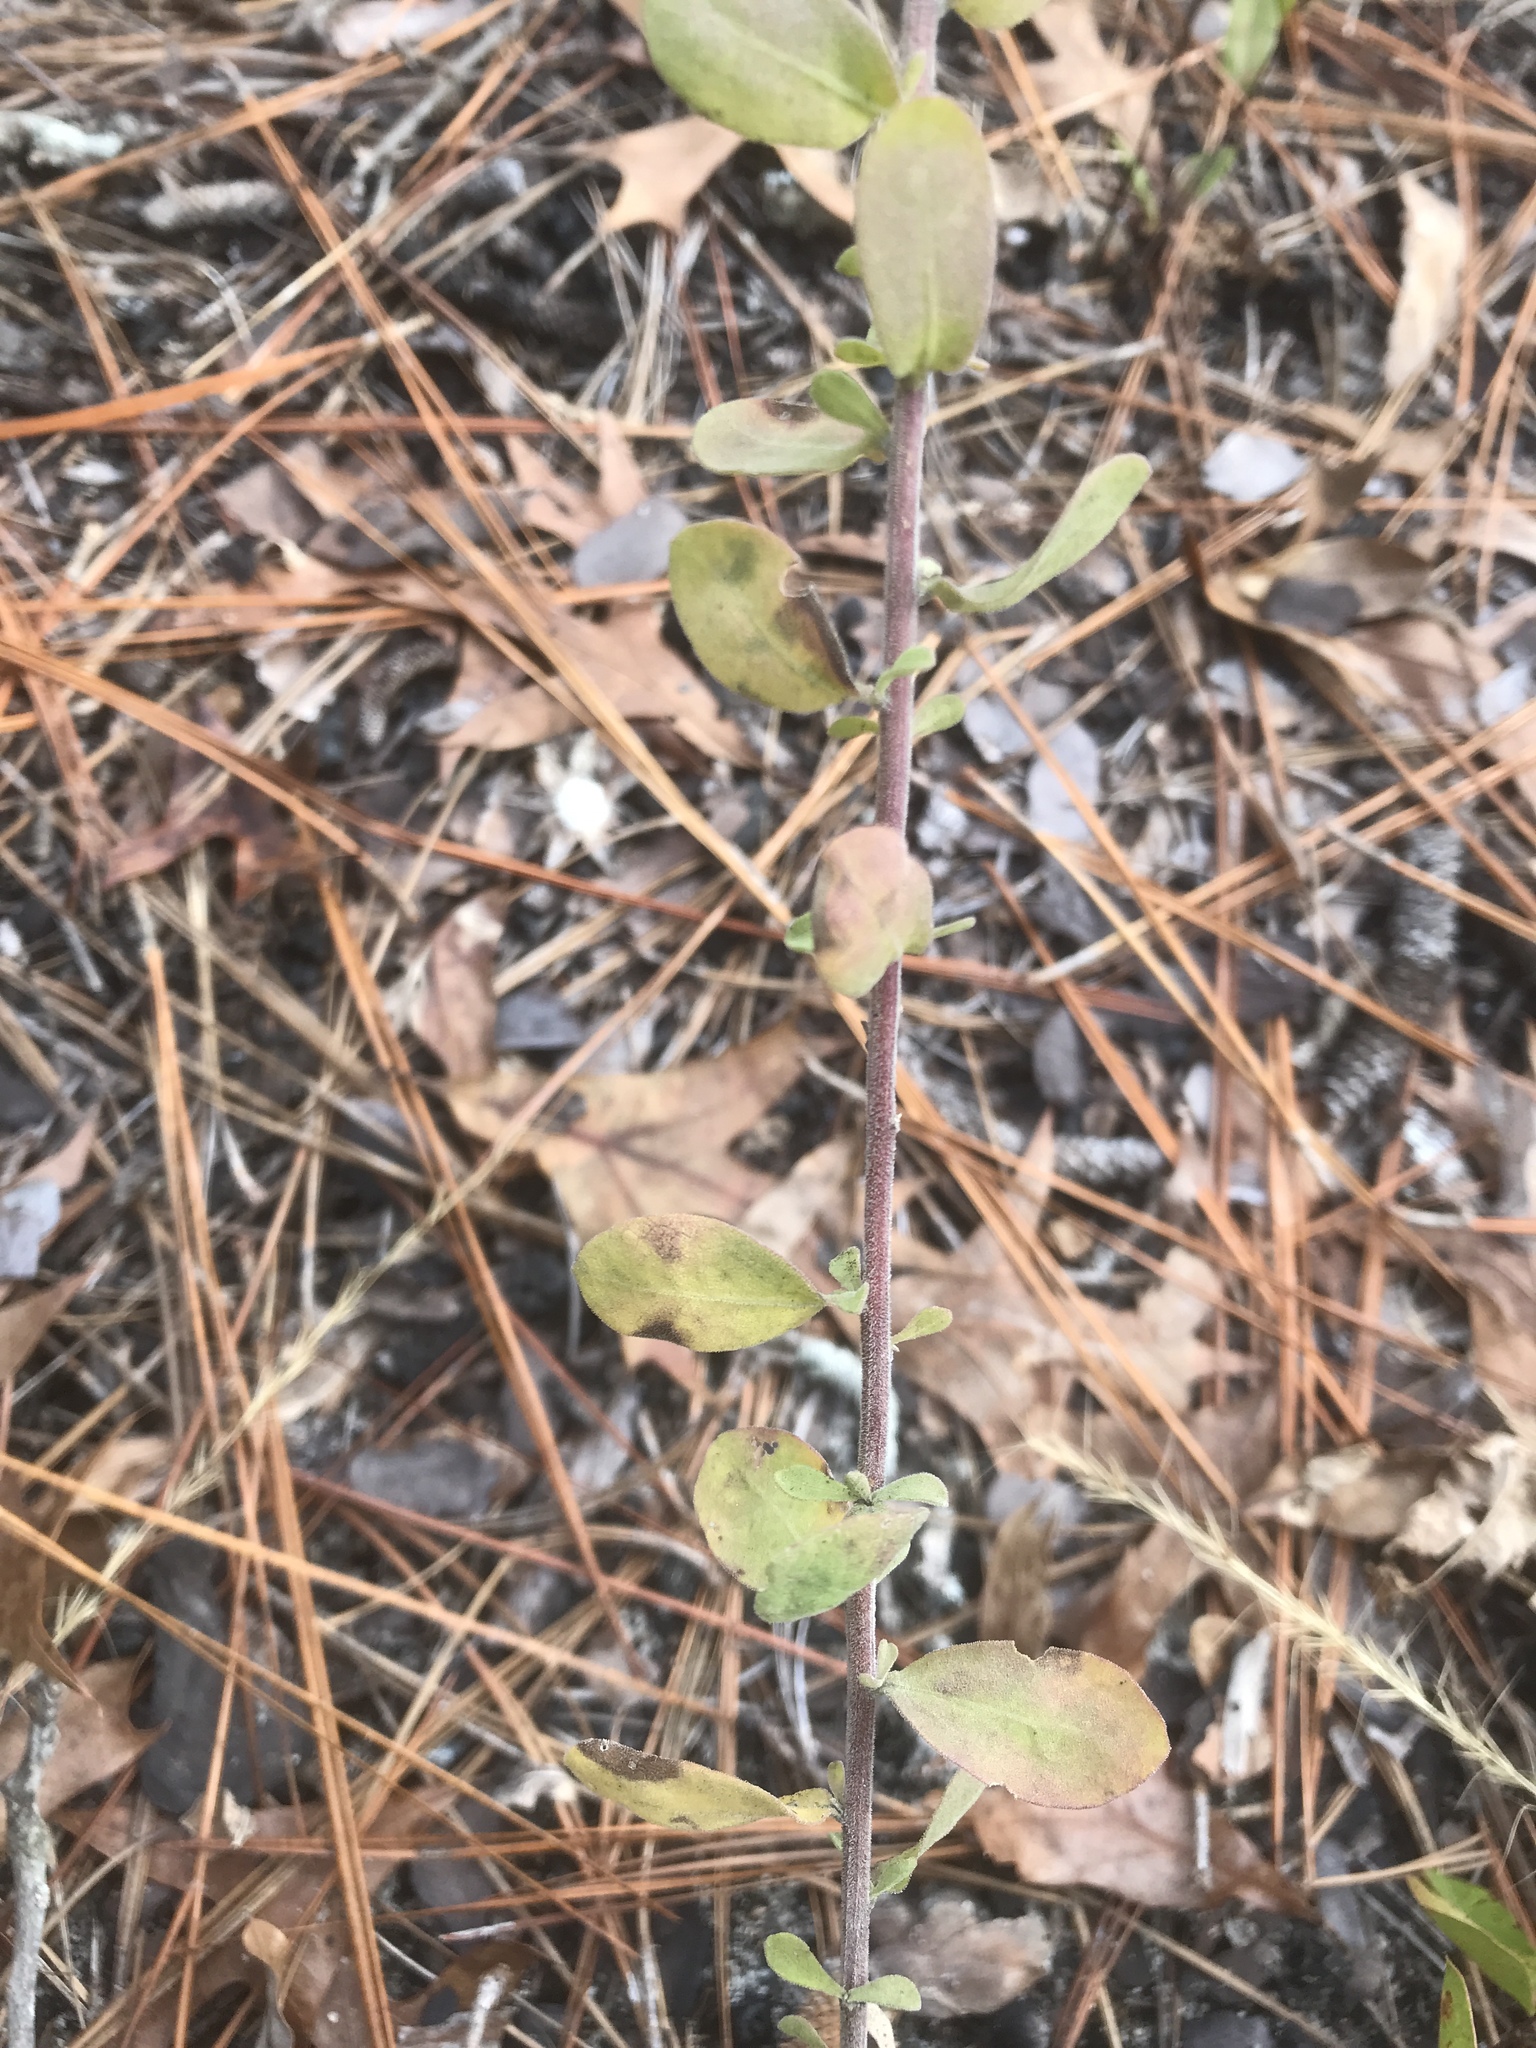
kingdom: Plantae
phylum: Tracheophyta
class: Magnoliopsida
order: Asterales
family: Asteraceae
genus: Sericocarpus
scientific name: Sericocarpus tortifolius
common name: Dixie aster
